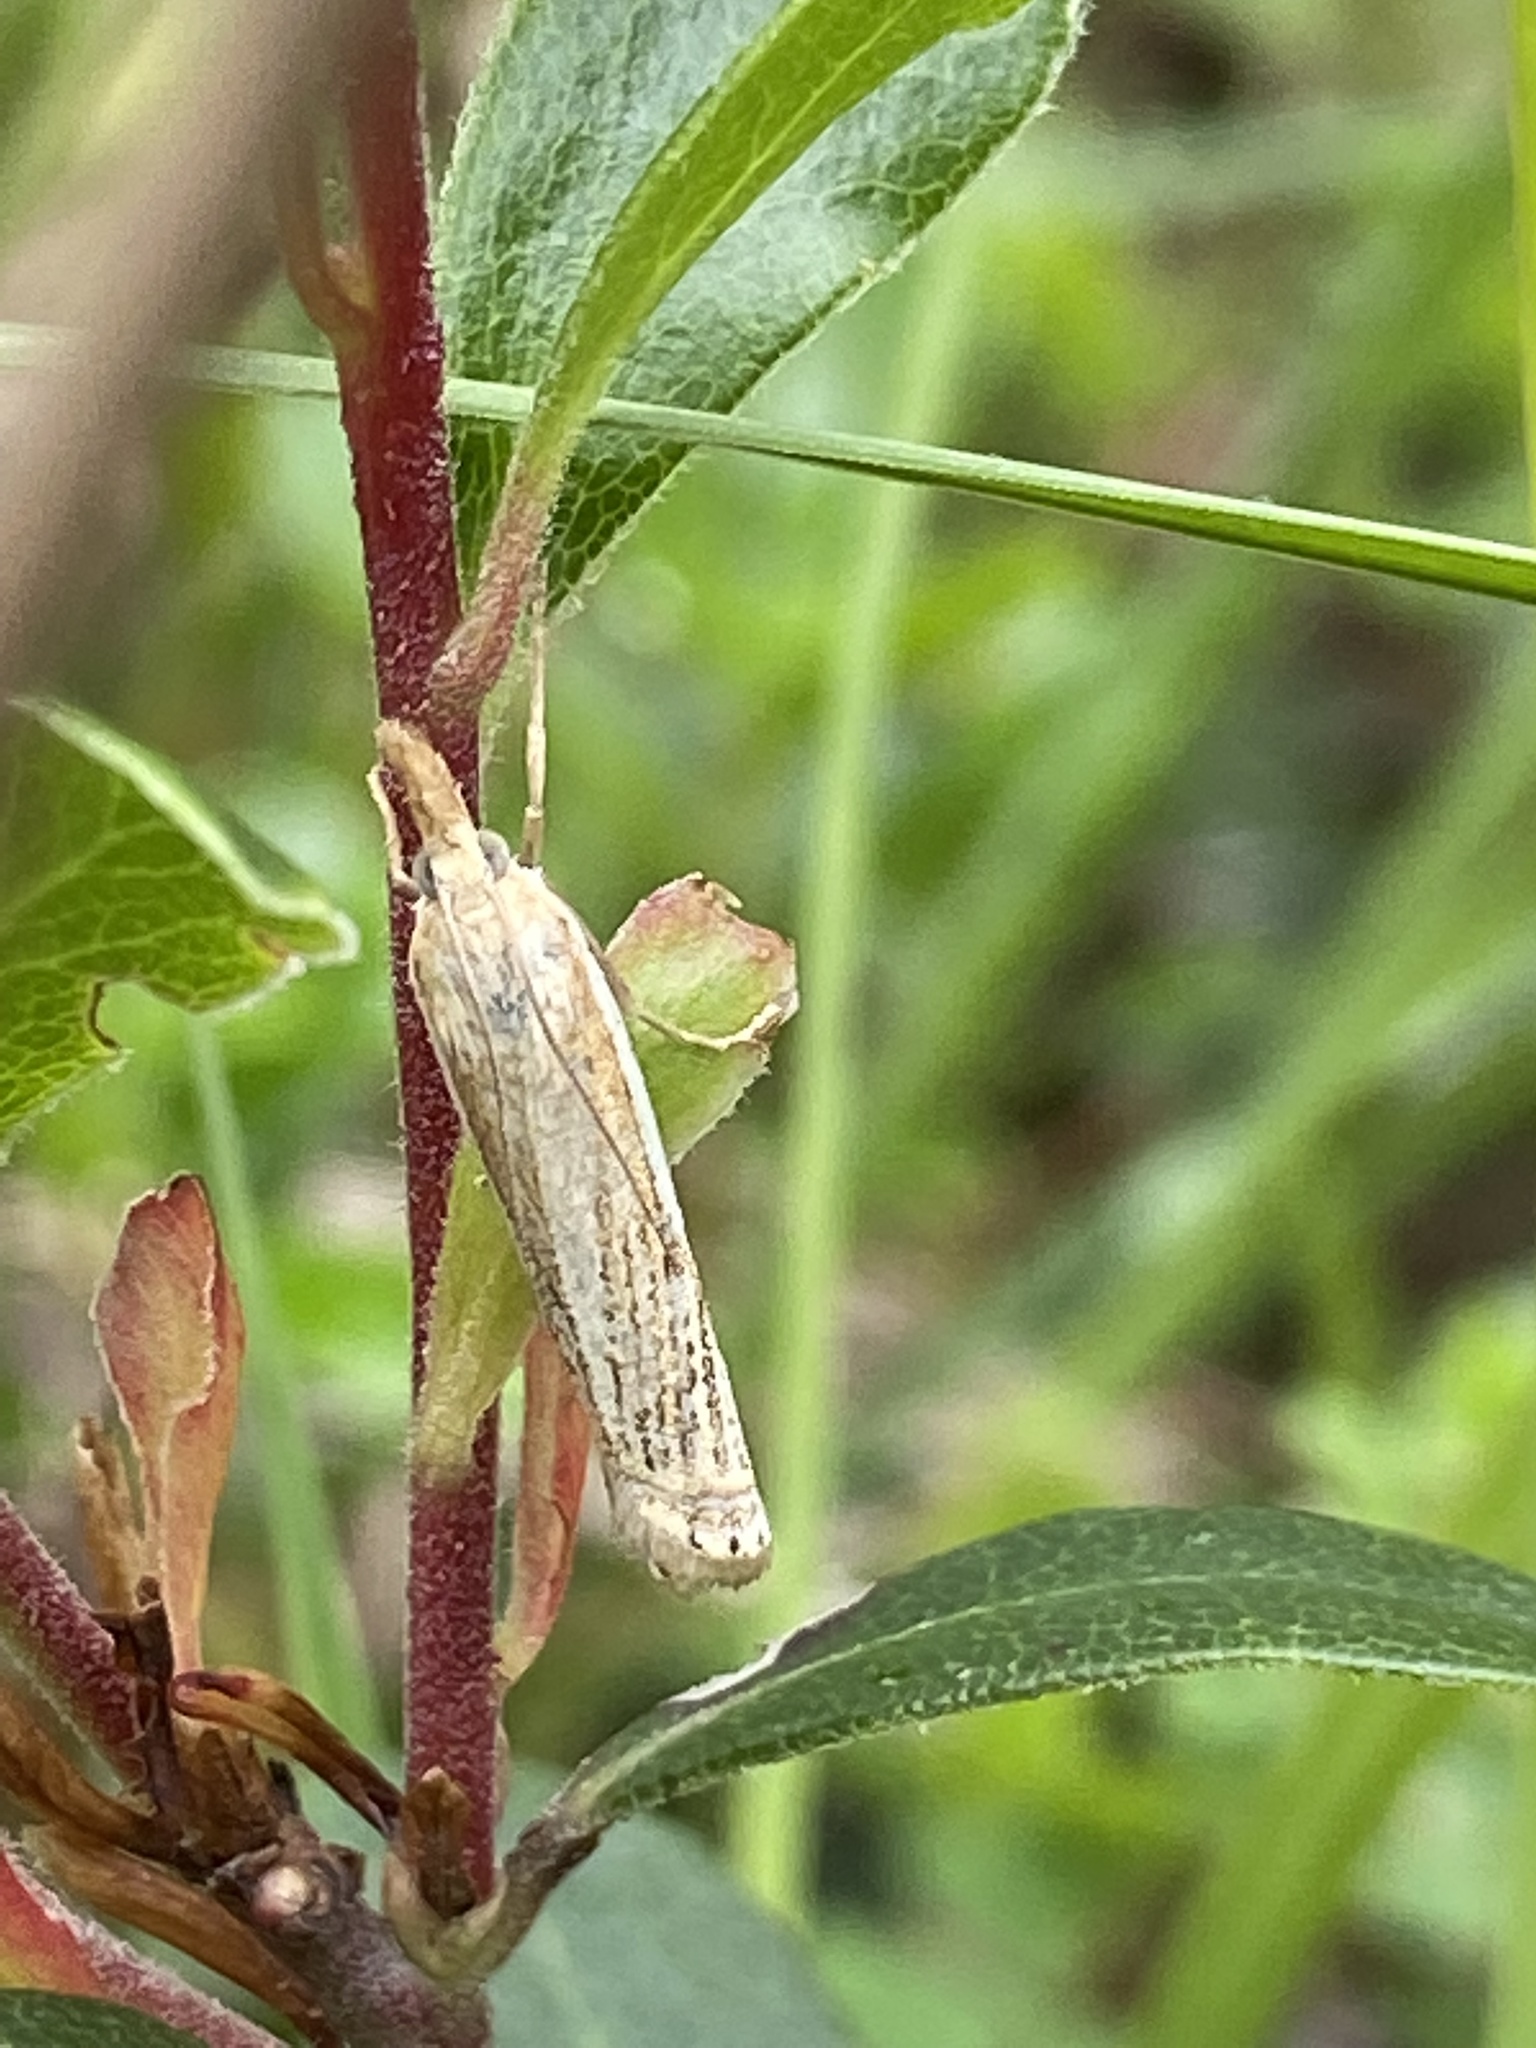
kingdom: Animalia
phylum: Arthropoda
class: Insecta
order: Lepidoptera
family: Crambidae
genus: Crambus
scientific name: Crambus saltuellus
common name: Pasture grass-veneer
